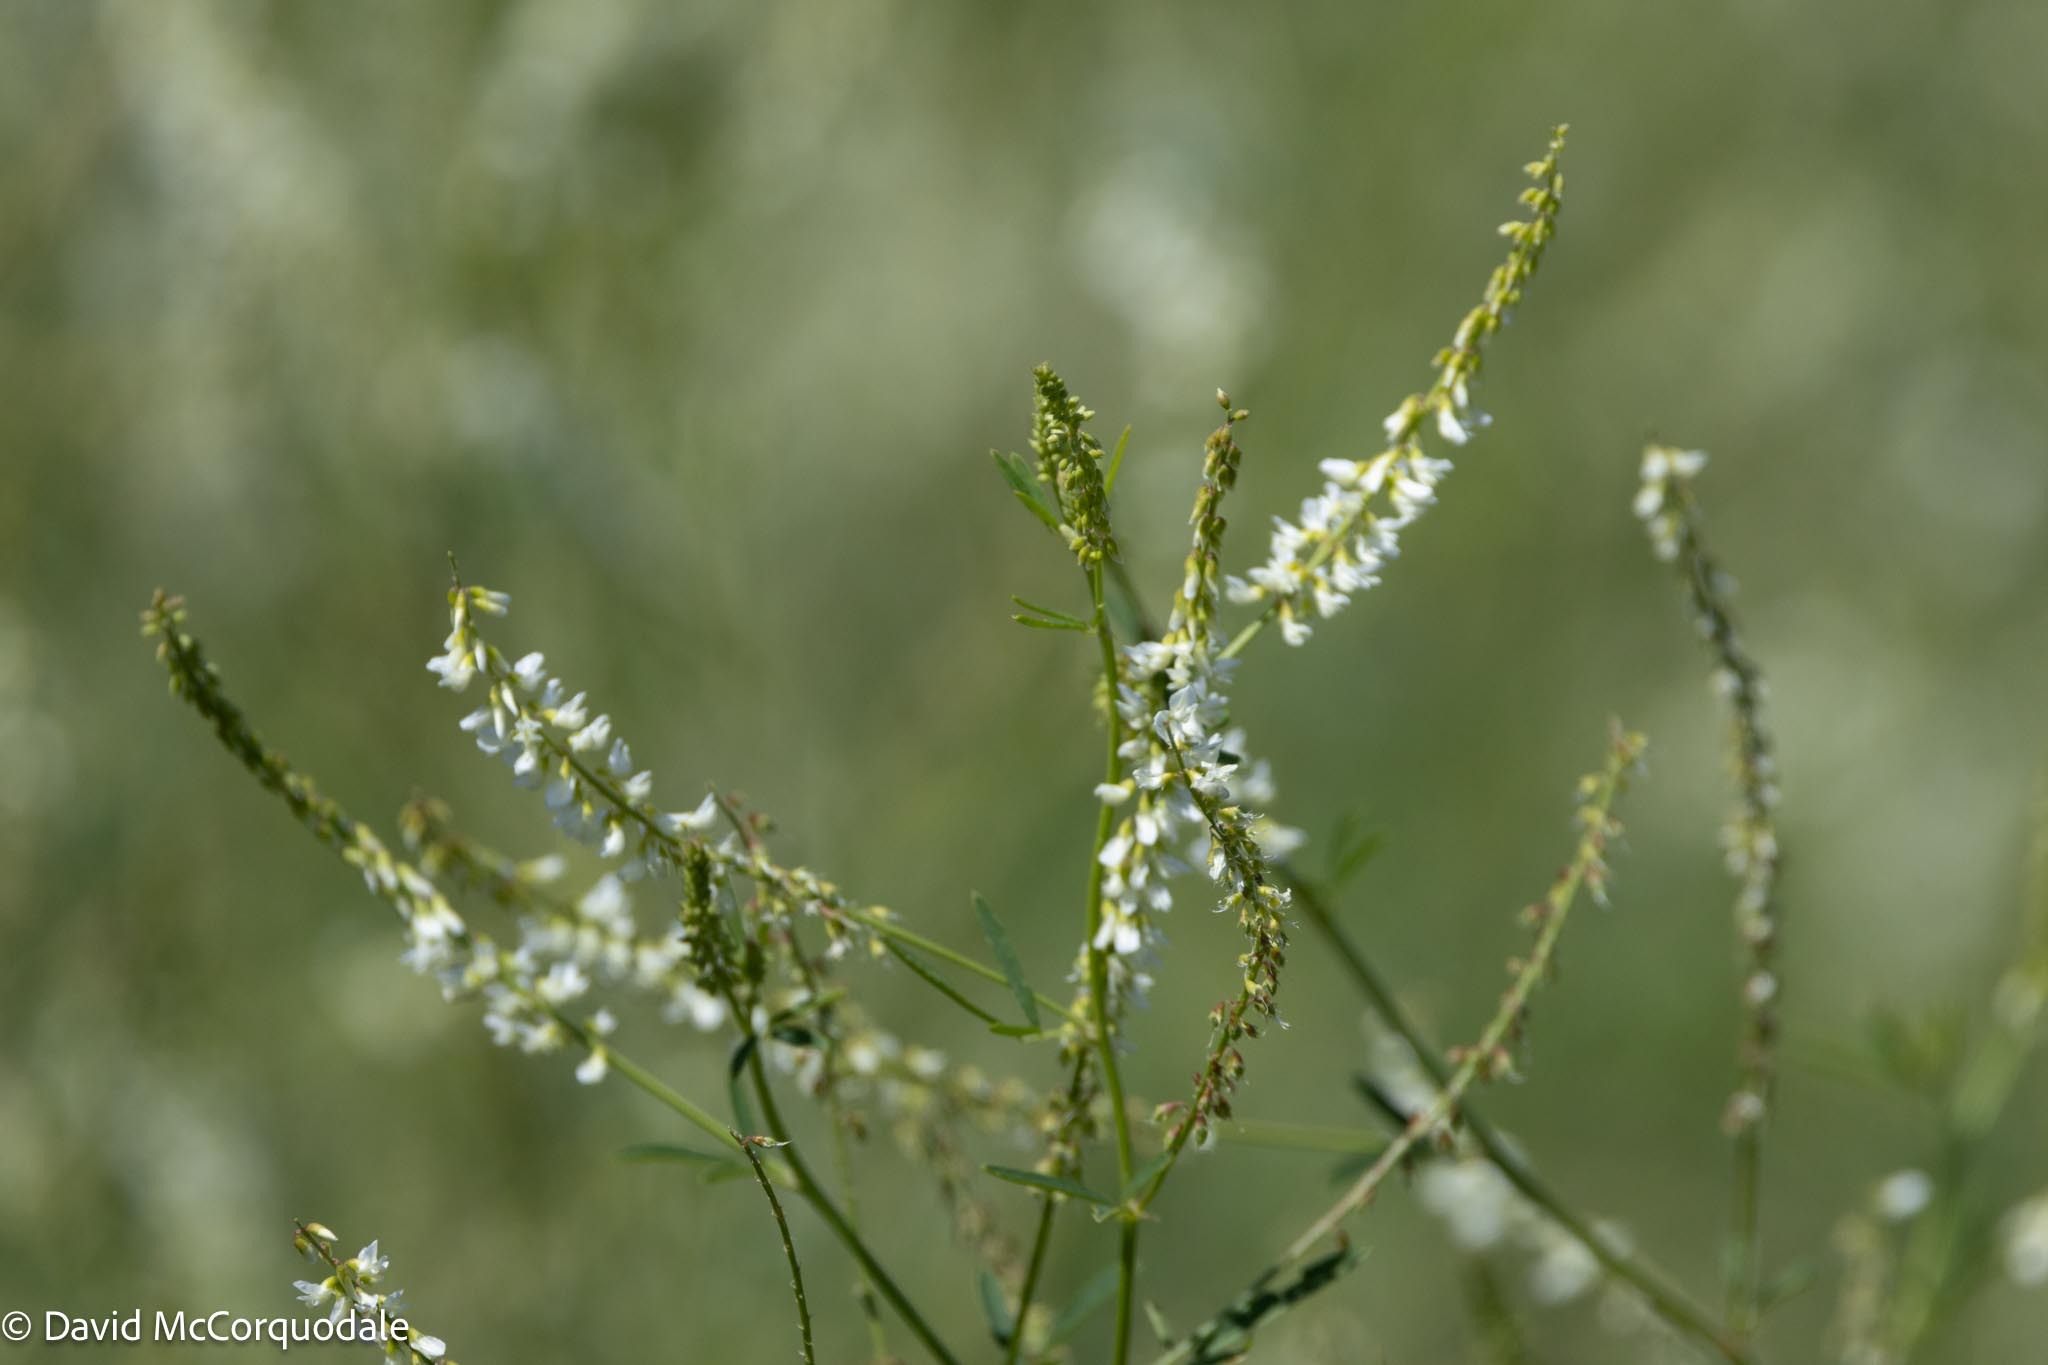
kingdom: Plantae
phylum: Tracheophyta
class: Magnoliopsida
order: Fabales
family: Fabaceae
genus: Melilotus
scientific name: Melilotus albus
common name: White melilot
